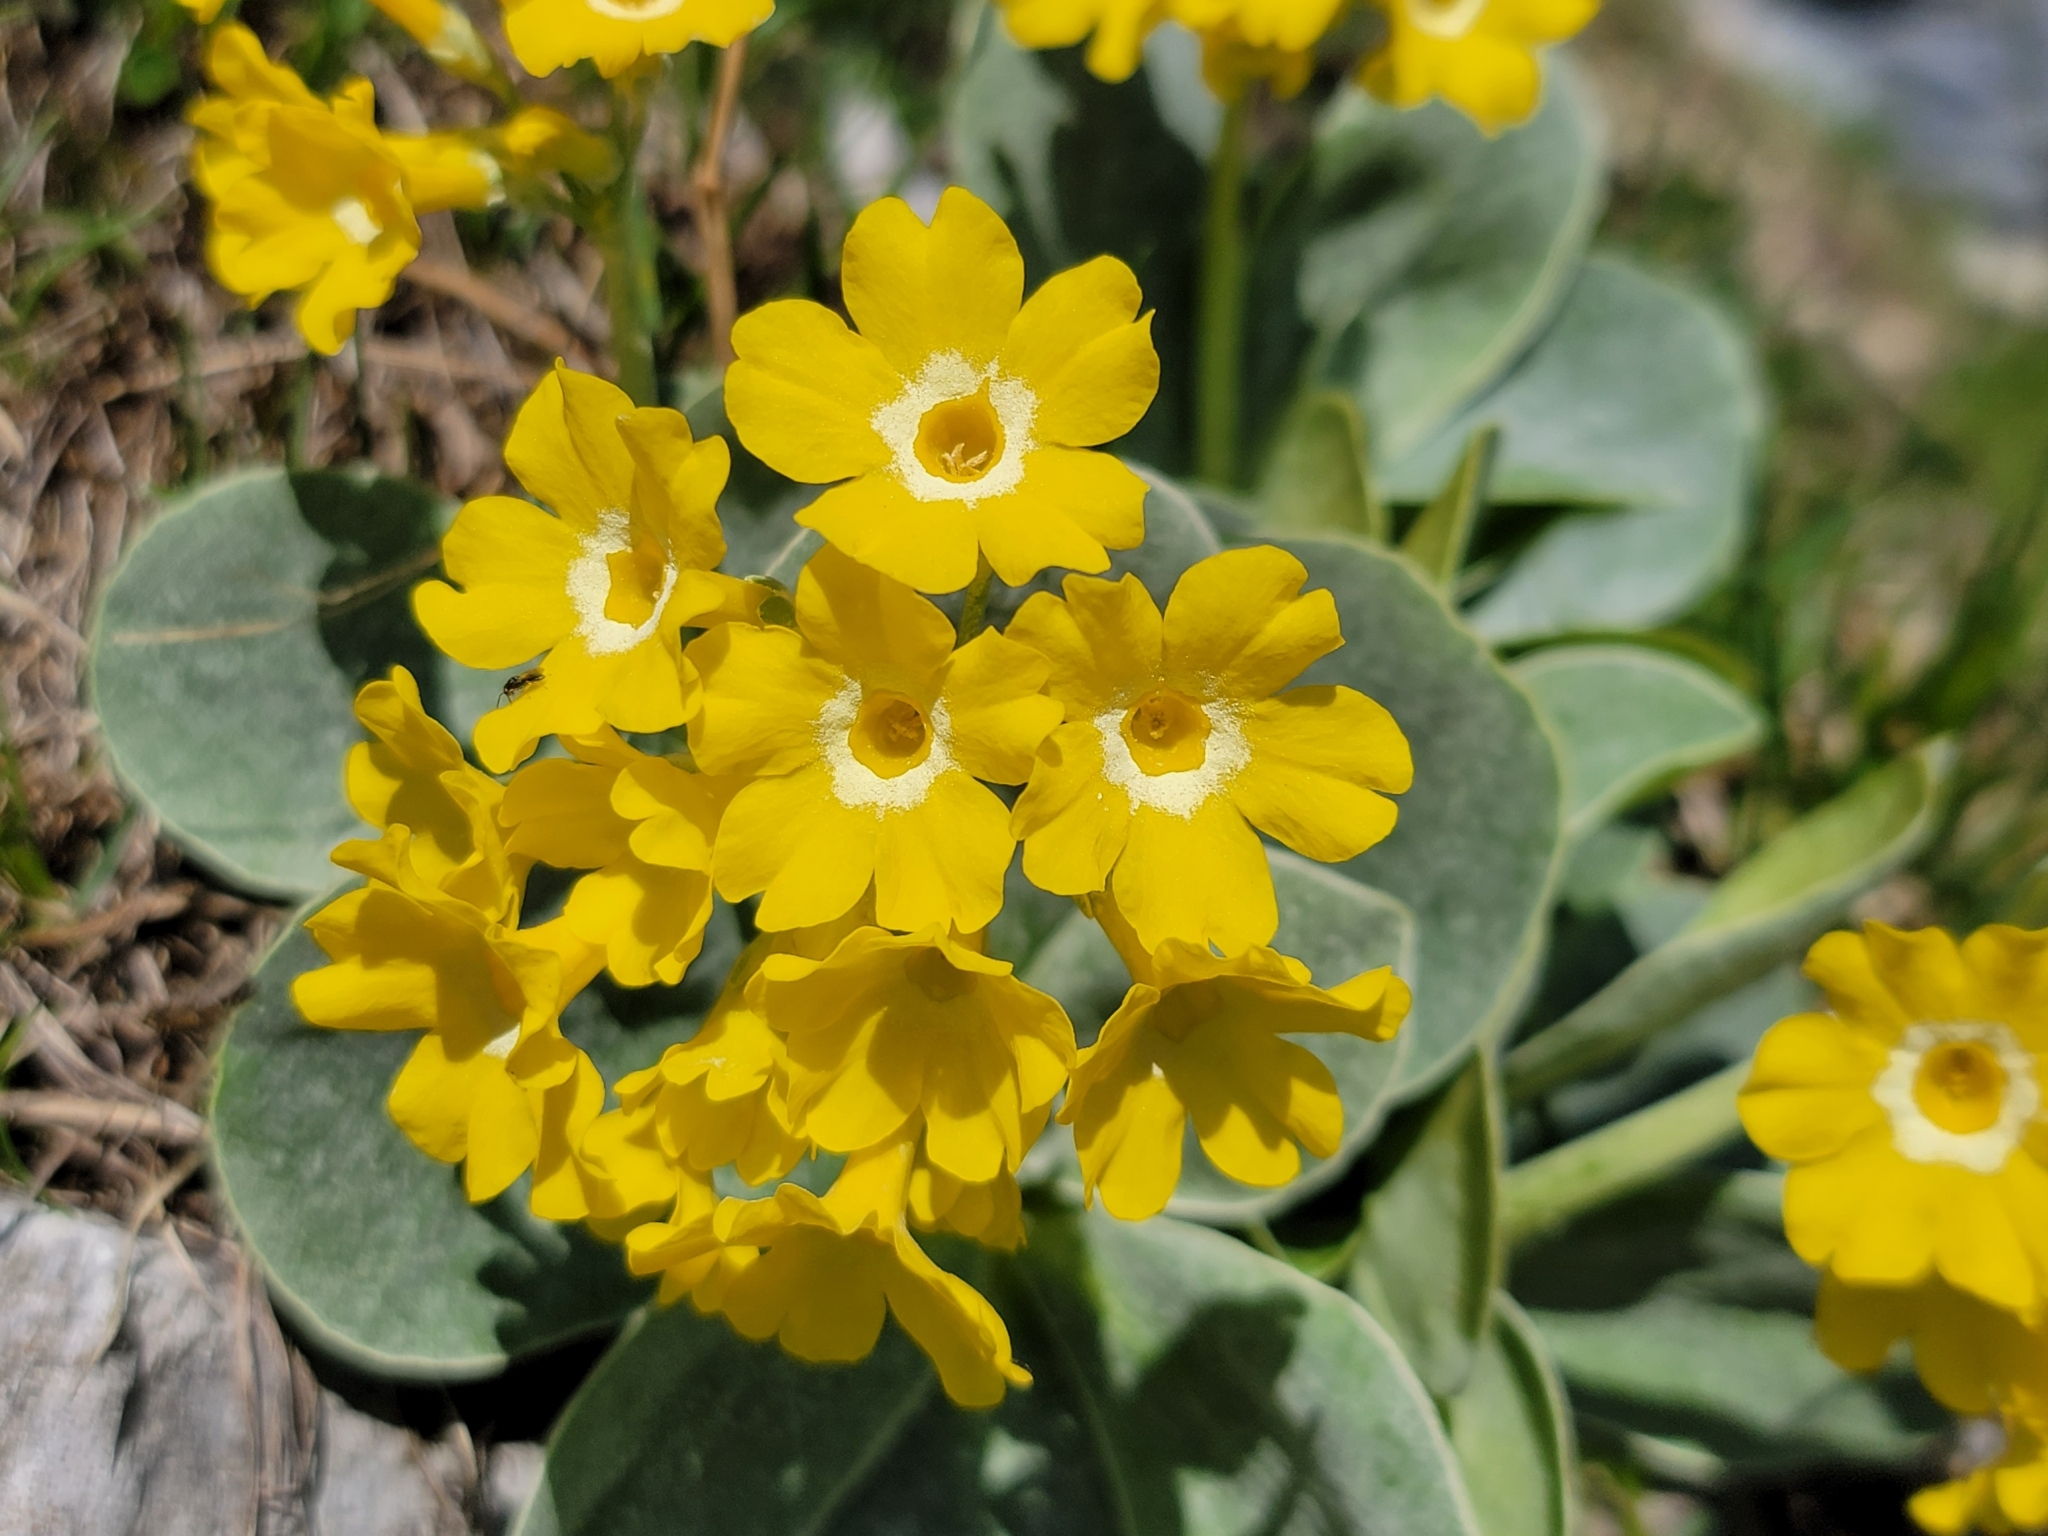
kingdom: Plantae
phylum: Tracheophyta
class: Magnoliopsida
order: Ericales
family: Primulaceae
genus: Primula
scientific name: Primula auricula
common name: Auricula
